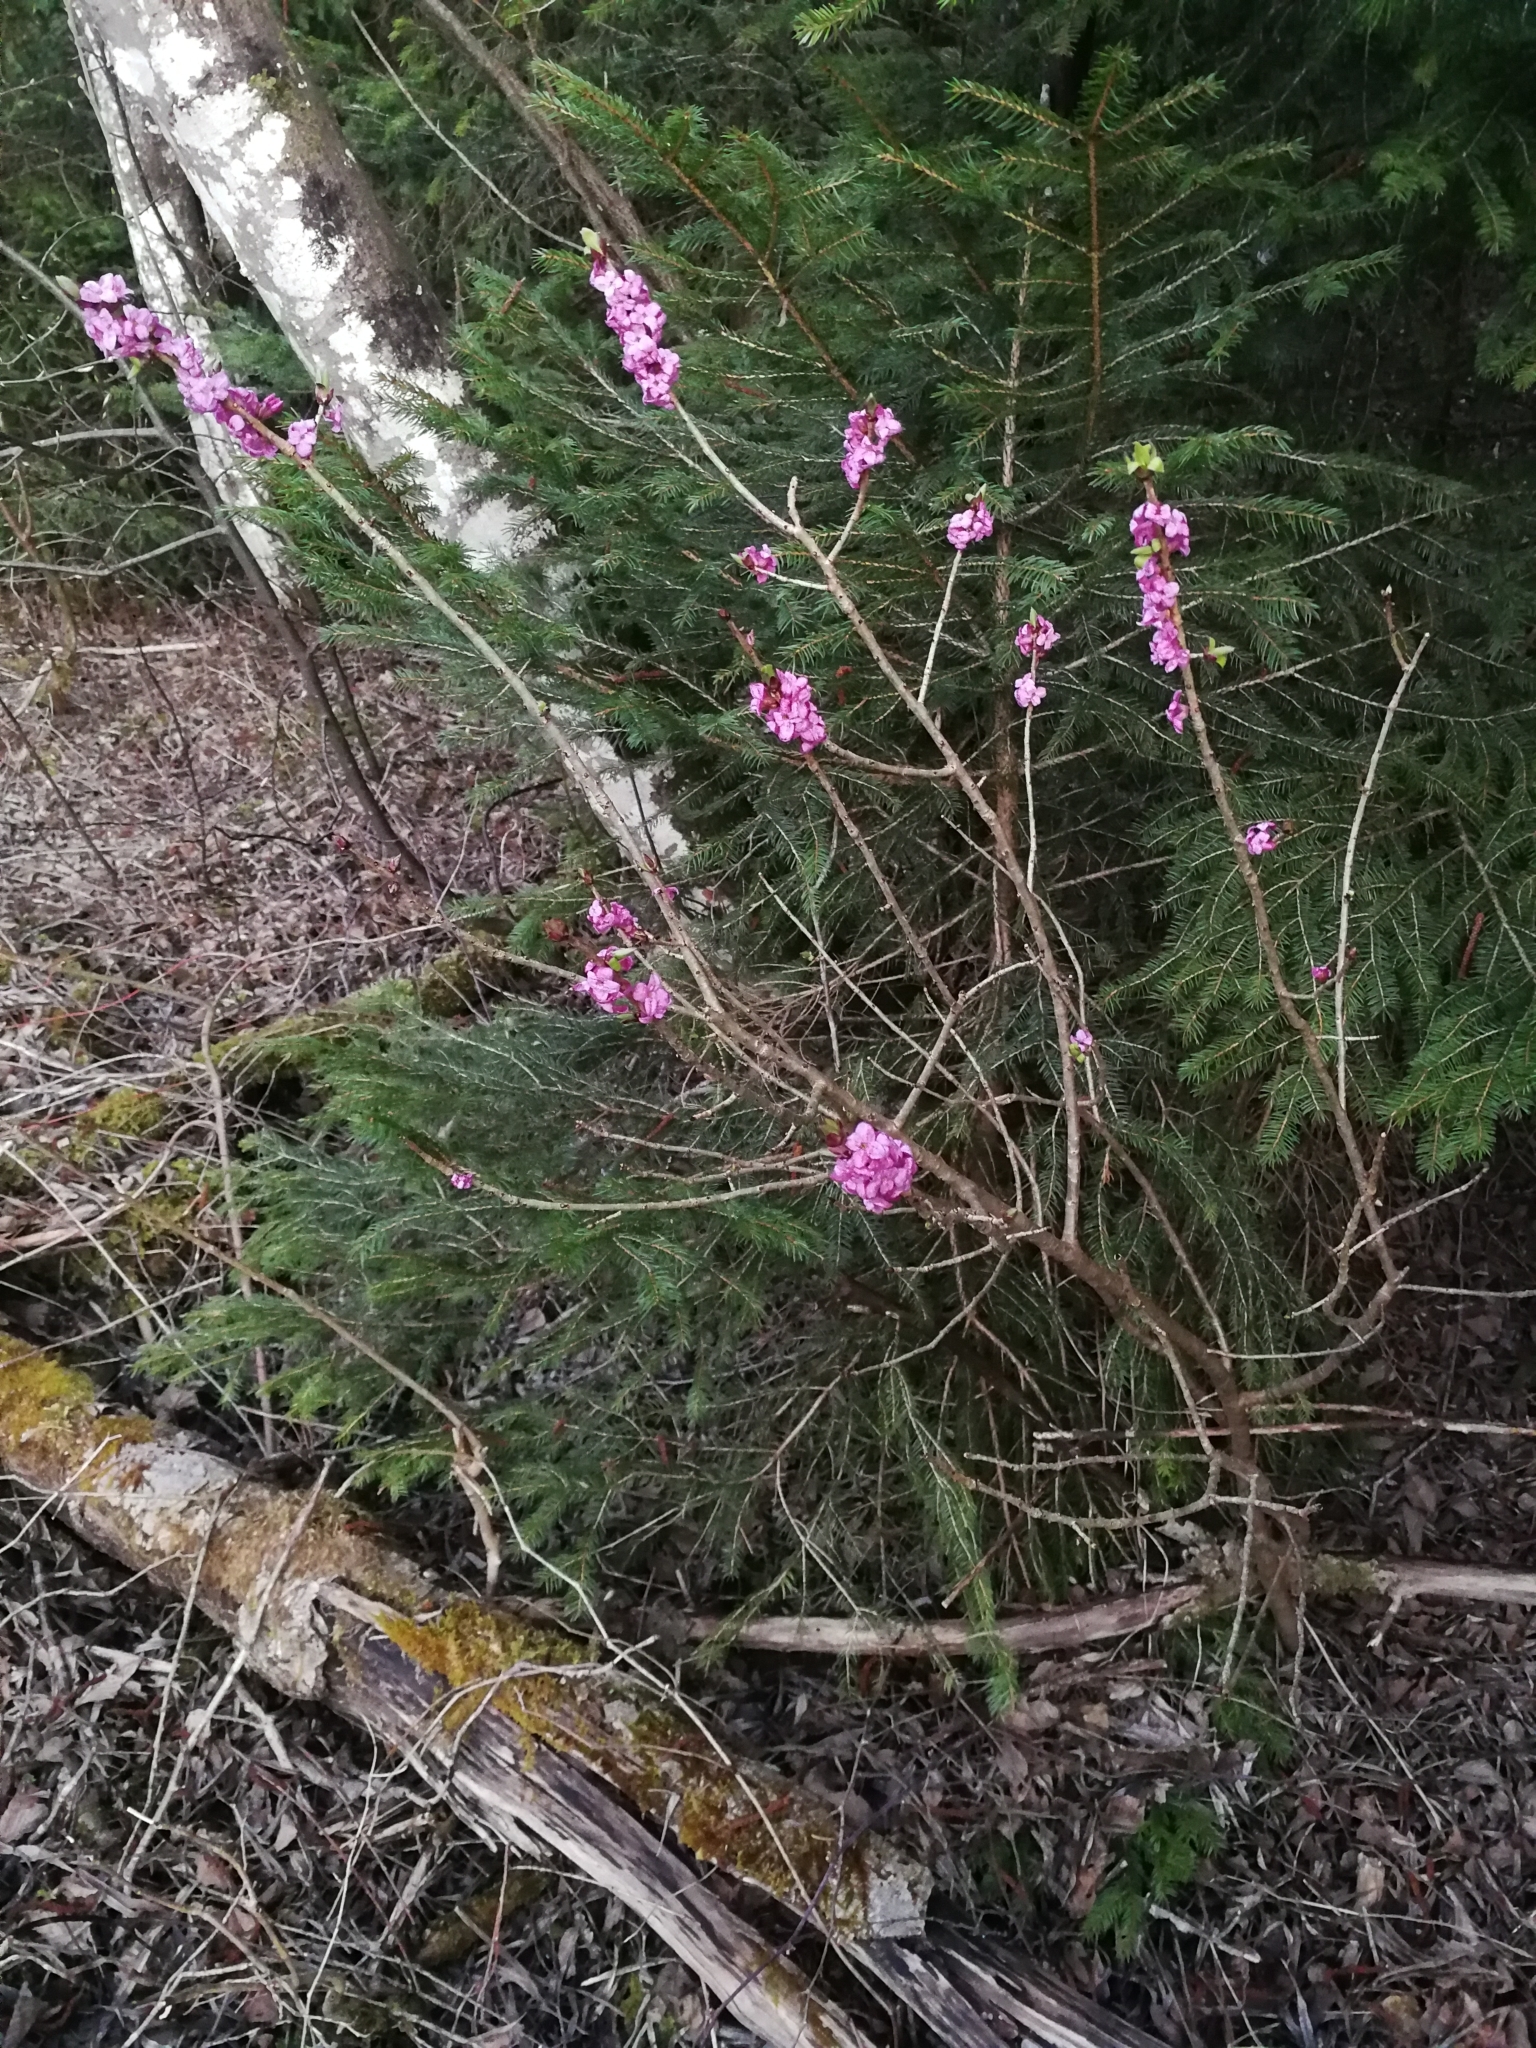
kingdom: Plantae
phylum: Tracheophyta
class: Magnoliopsida
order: Malvales
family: Thymelaeaceae
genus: Daphne
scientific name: Daphne mezereum
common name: Mezereon
